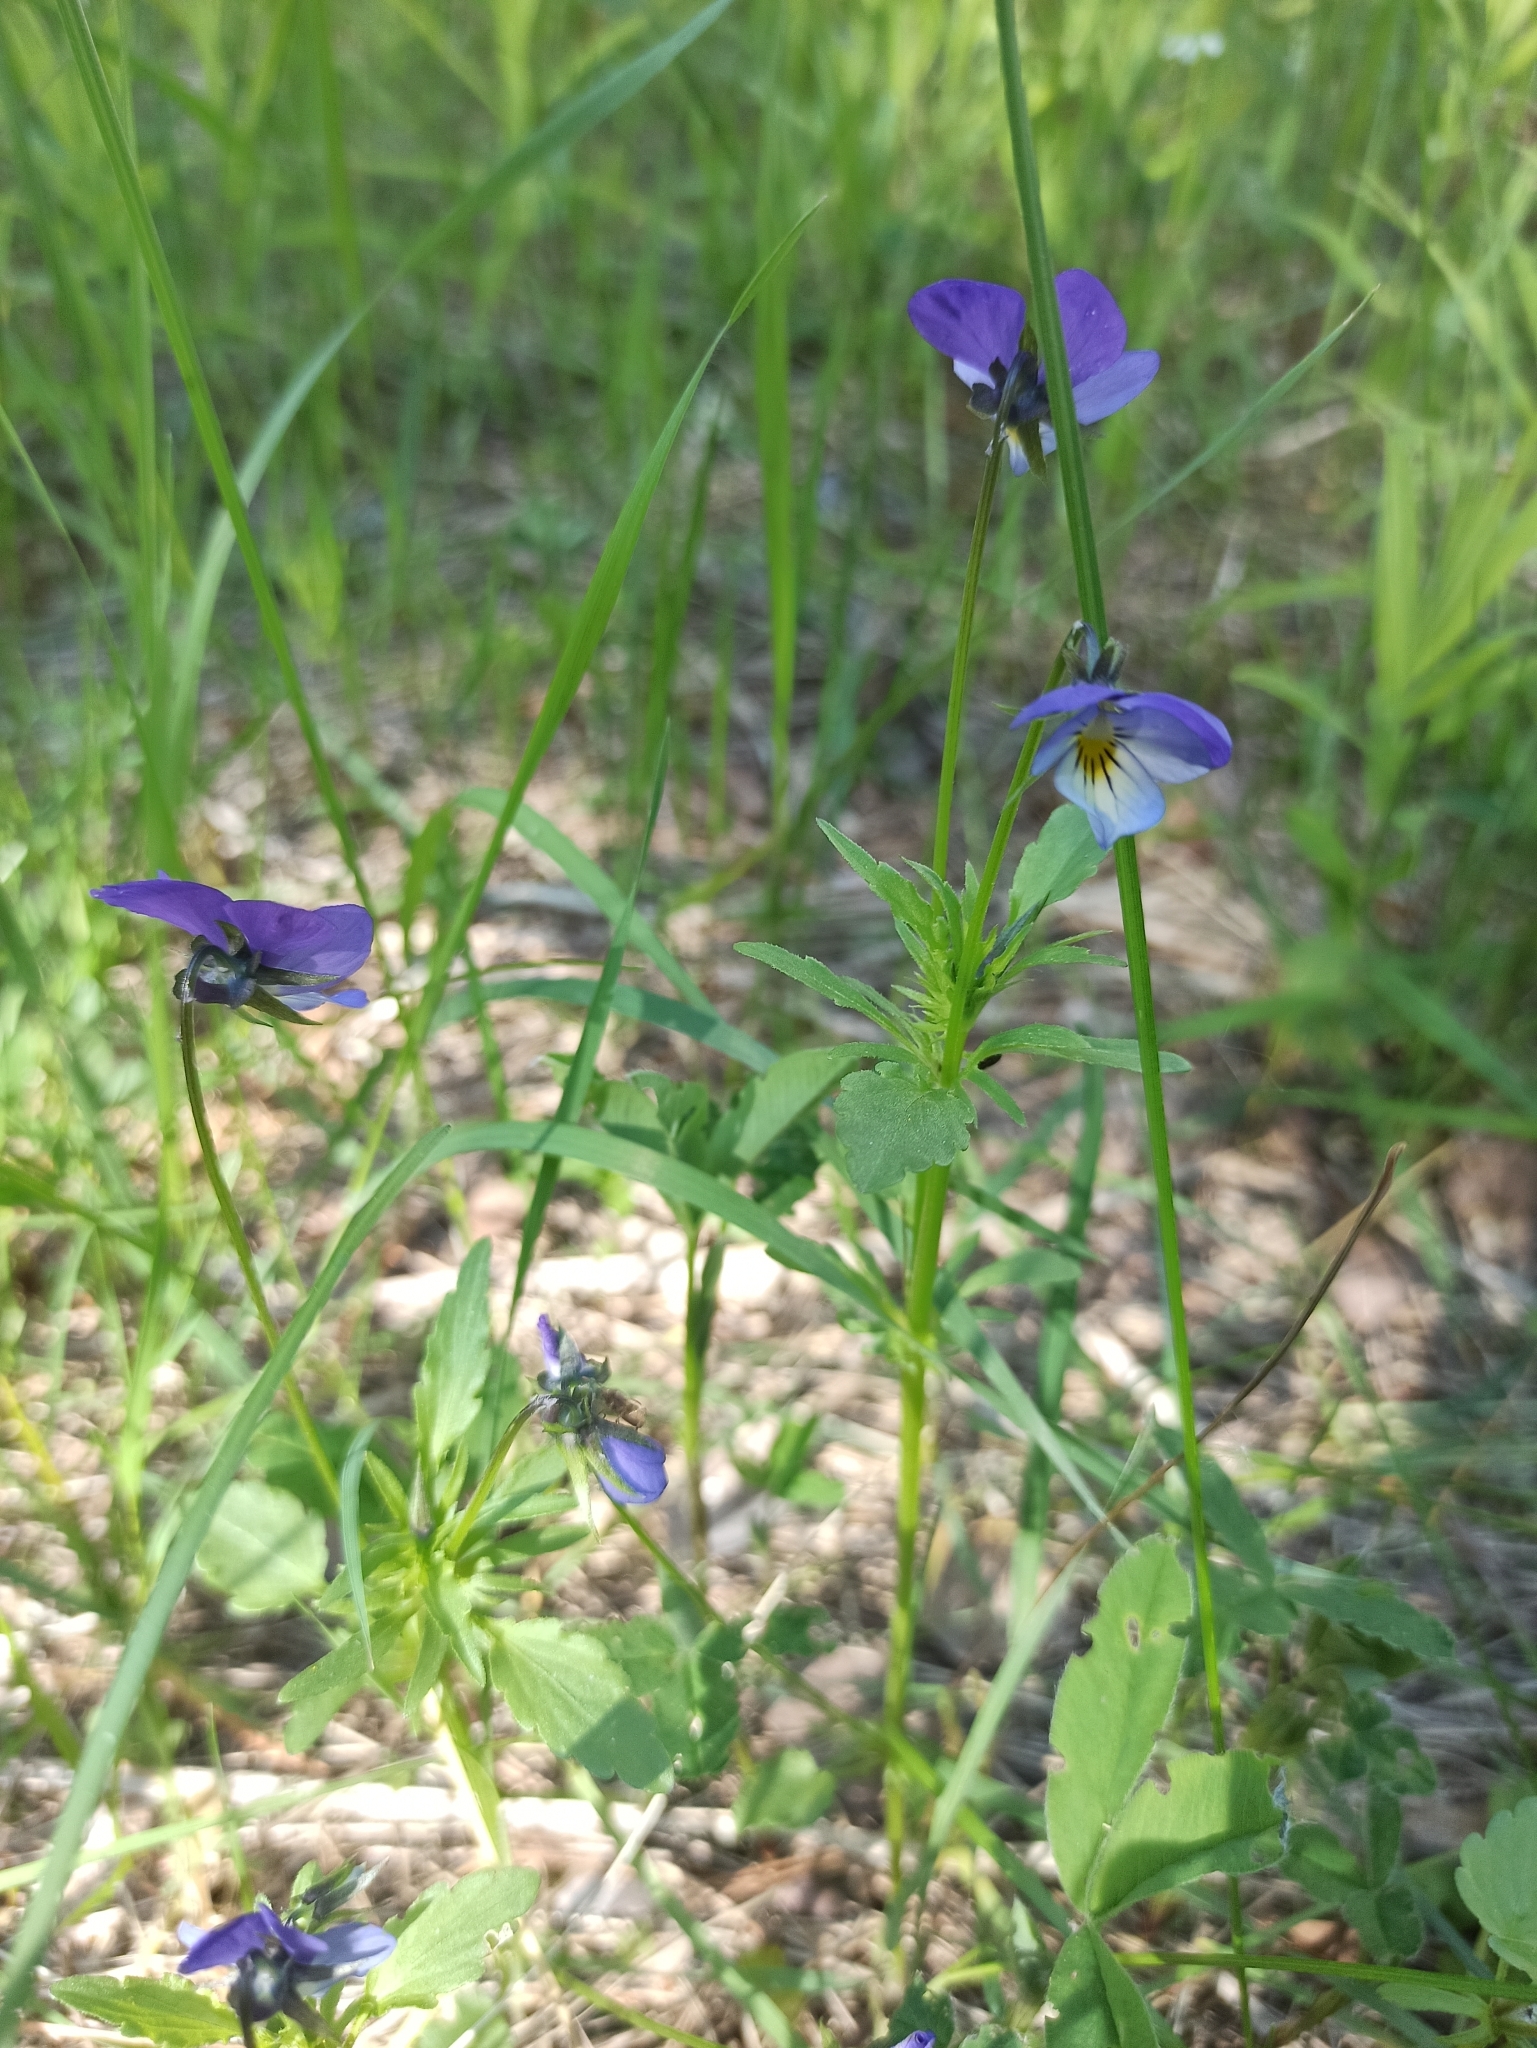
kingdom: Plantae
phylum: Tracheophyta
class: Magnoliopsida
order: Malpighiales
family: Violaceae
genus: Viola
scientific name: Viola tricolor
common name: Pansy
